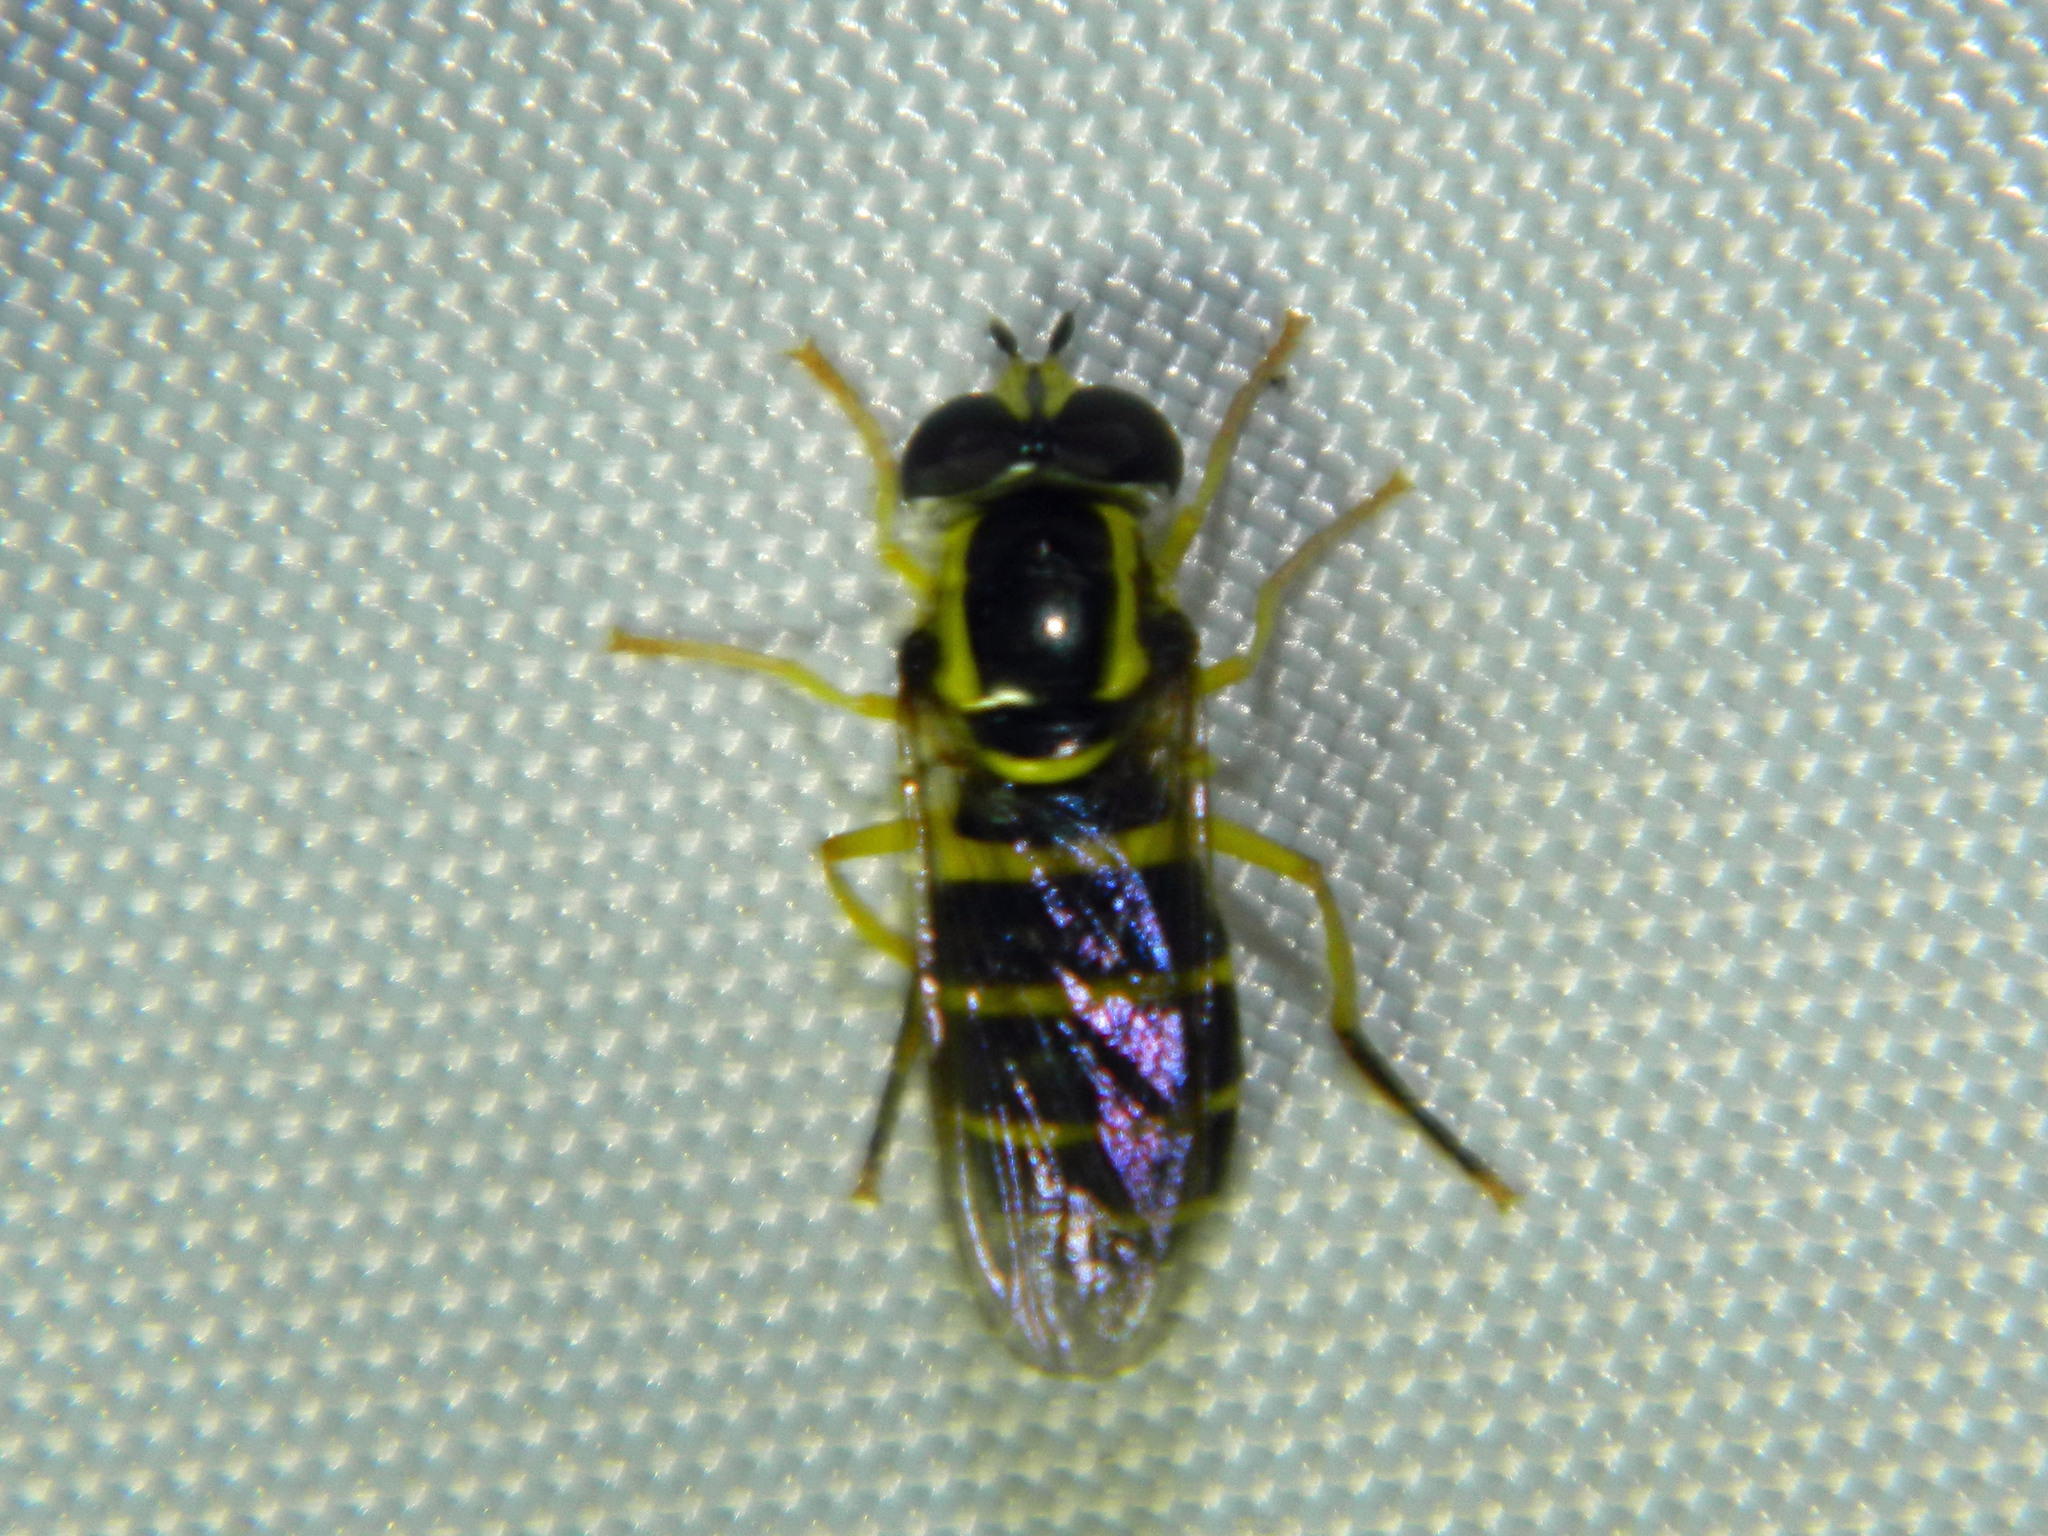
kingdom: Animalia
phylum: Arthropoda
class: Insecta
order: Diptera
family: Syrphidae
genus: Philhelius
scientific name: Philhelius flavipes
